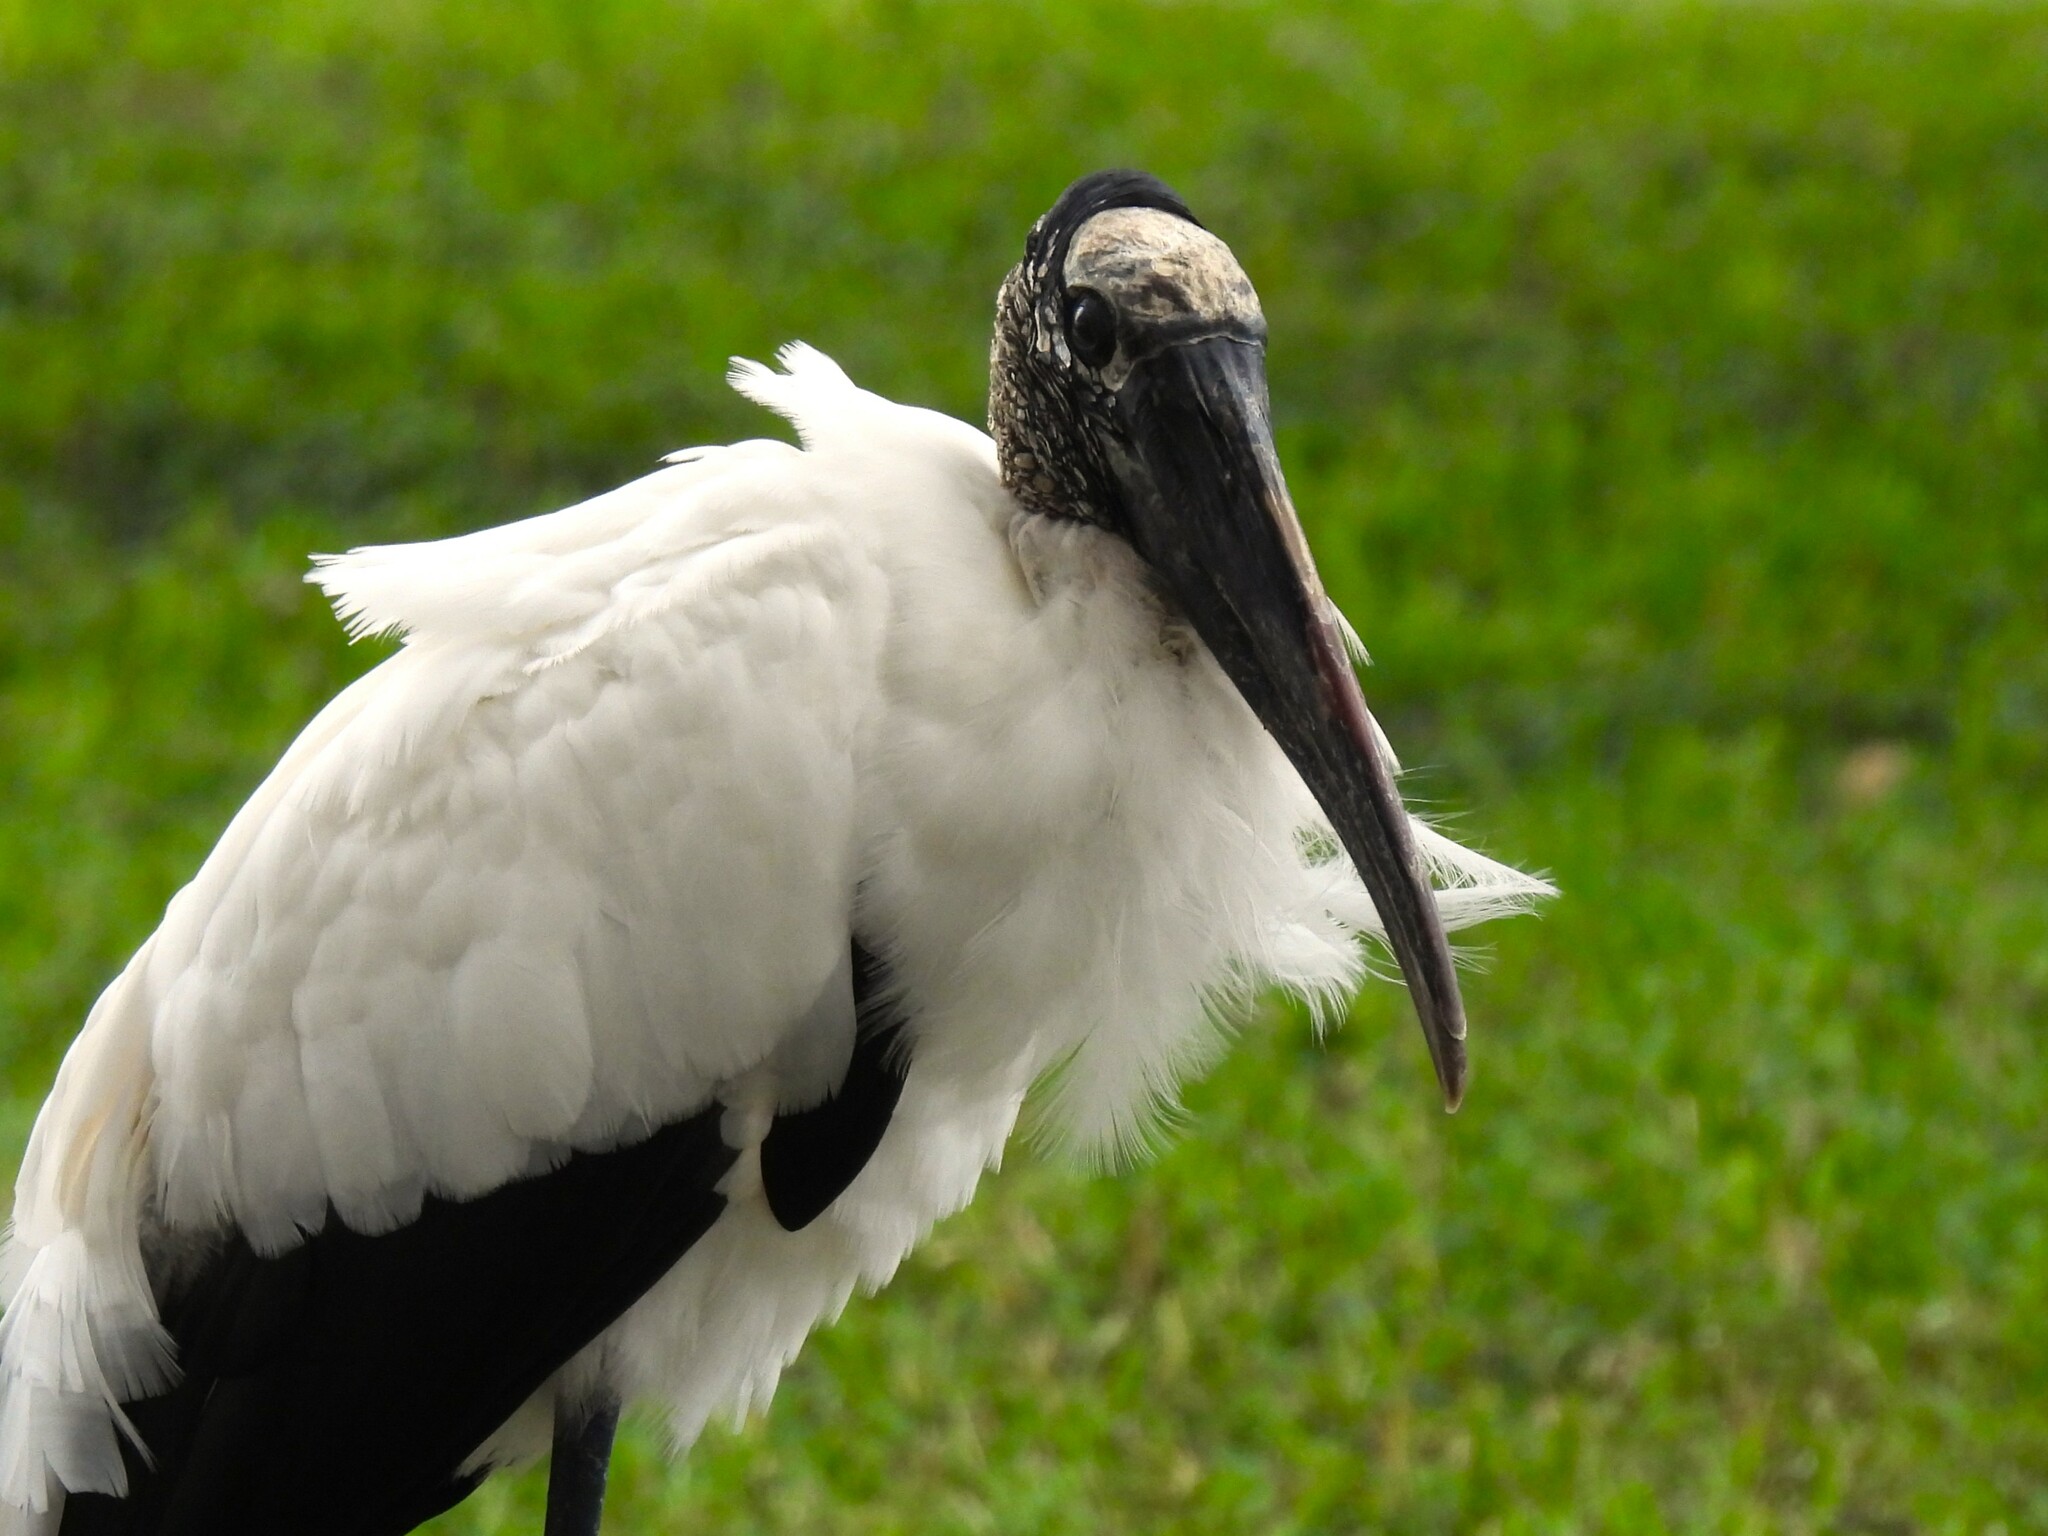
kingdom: Animalia
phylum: Chordata
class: Aves
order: Ciconiiformes
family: Ciconiidae
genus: Mycteria
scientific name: Mycteria americana
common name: Wood stork
